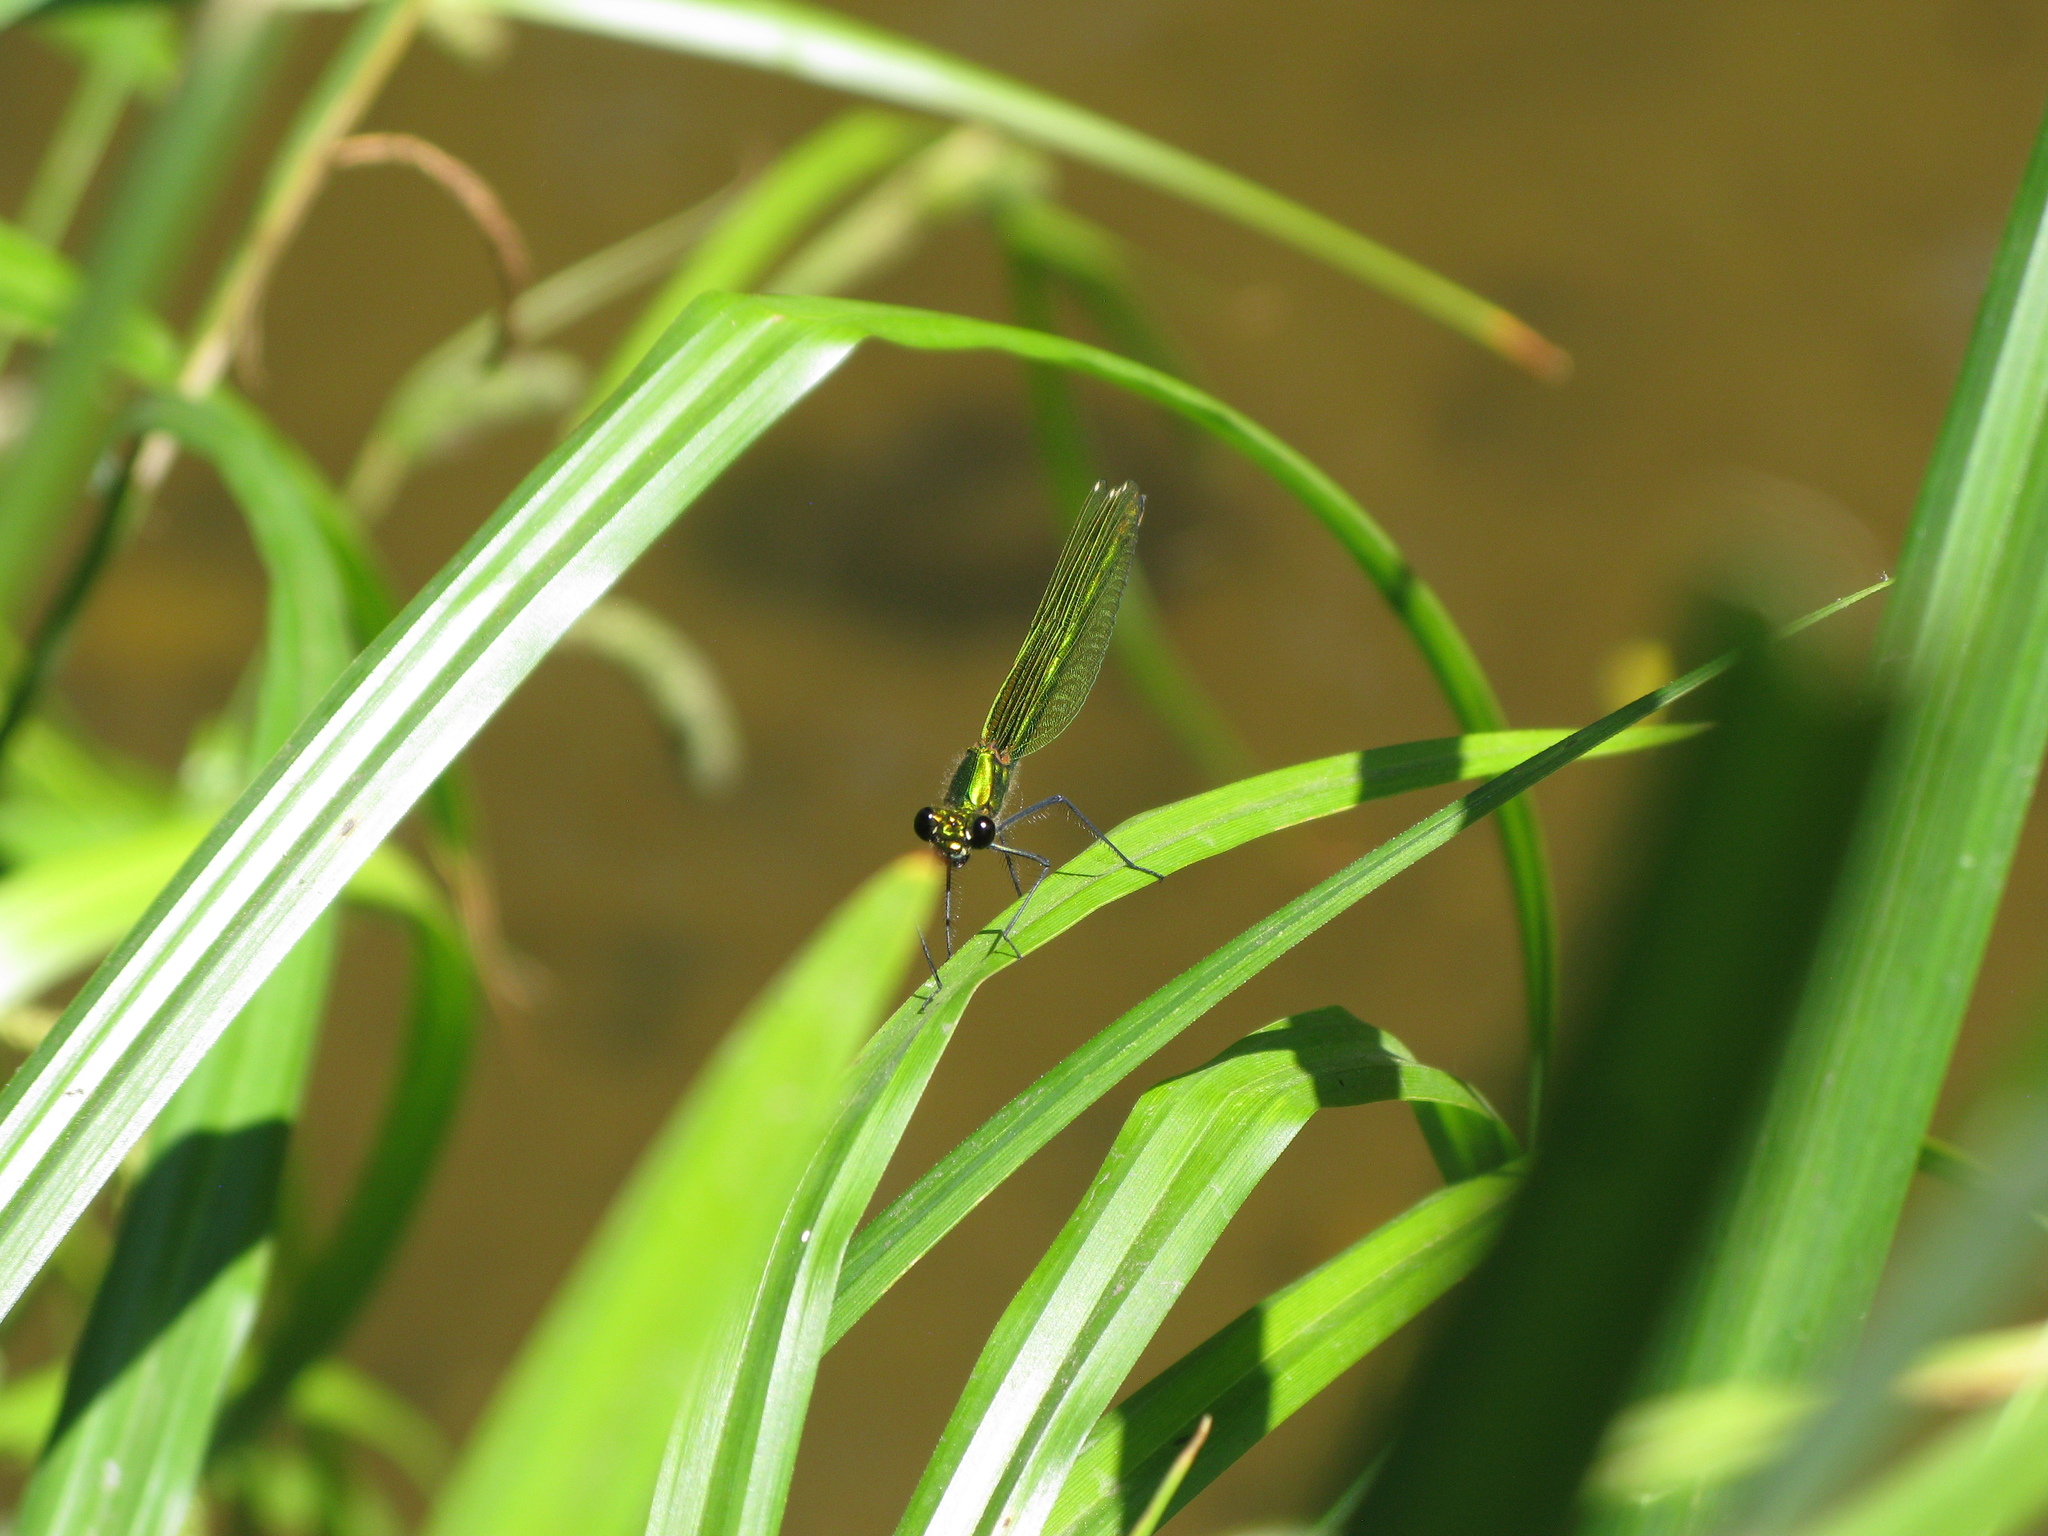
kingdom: Animalia
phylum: Arthropoda
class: Insecta
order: Odonata
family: Calopterygidae
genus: Calopteryx
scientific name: Calopteryx splendens
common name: Banded demoiselle
